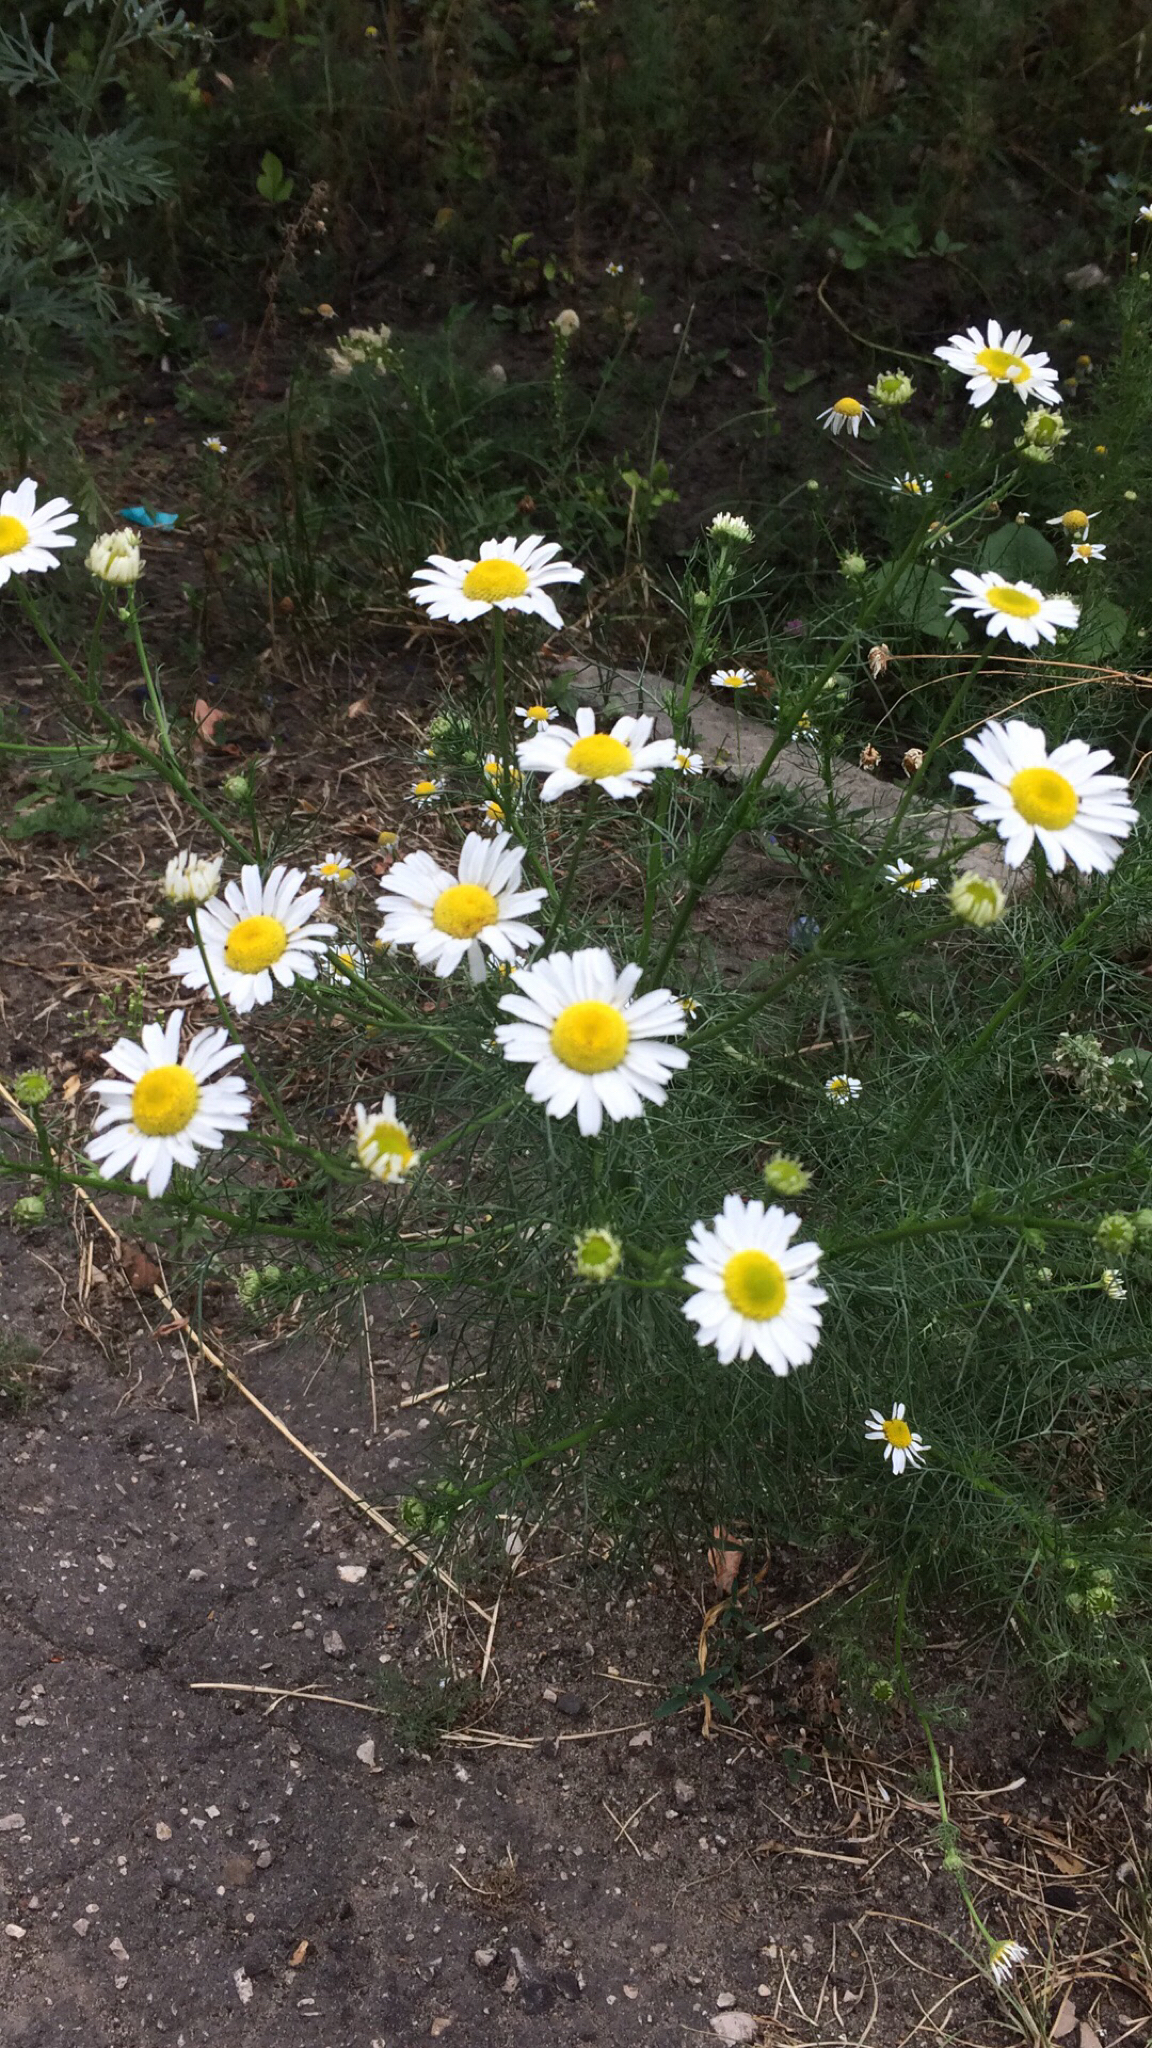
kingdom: Plantae
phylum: Tracheophyta
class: Magnoliopsida
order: Asterales
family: Asteraceae
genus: Tripleurospermum
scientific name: Tripleurospermum inodorum
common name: Scentless mayweed
